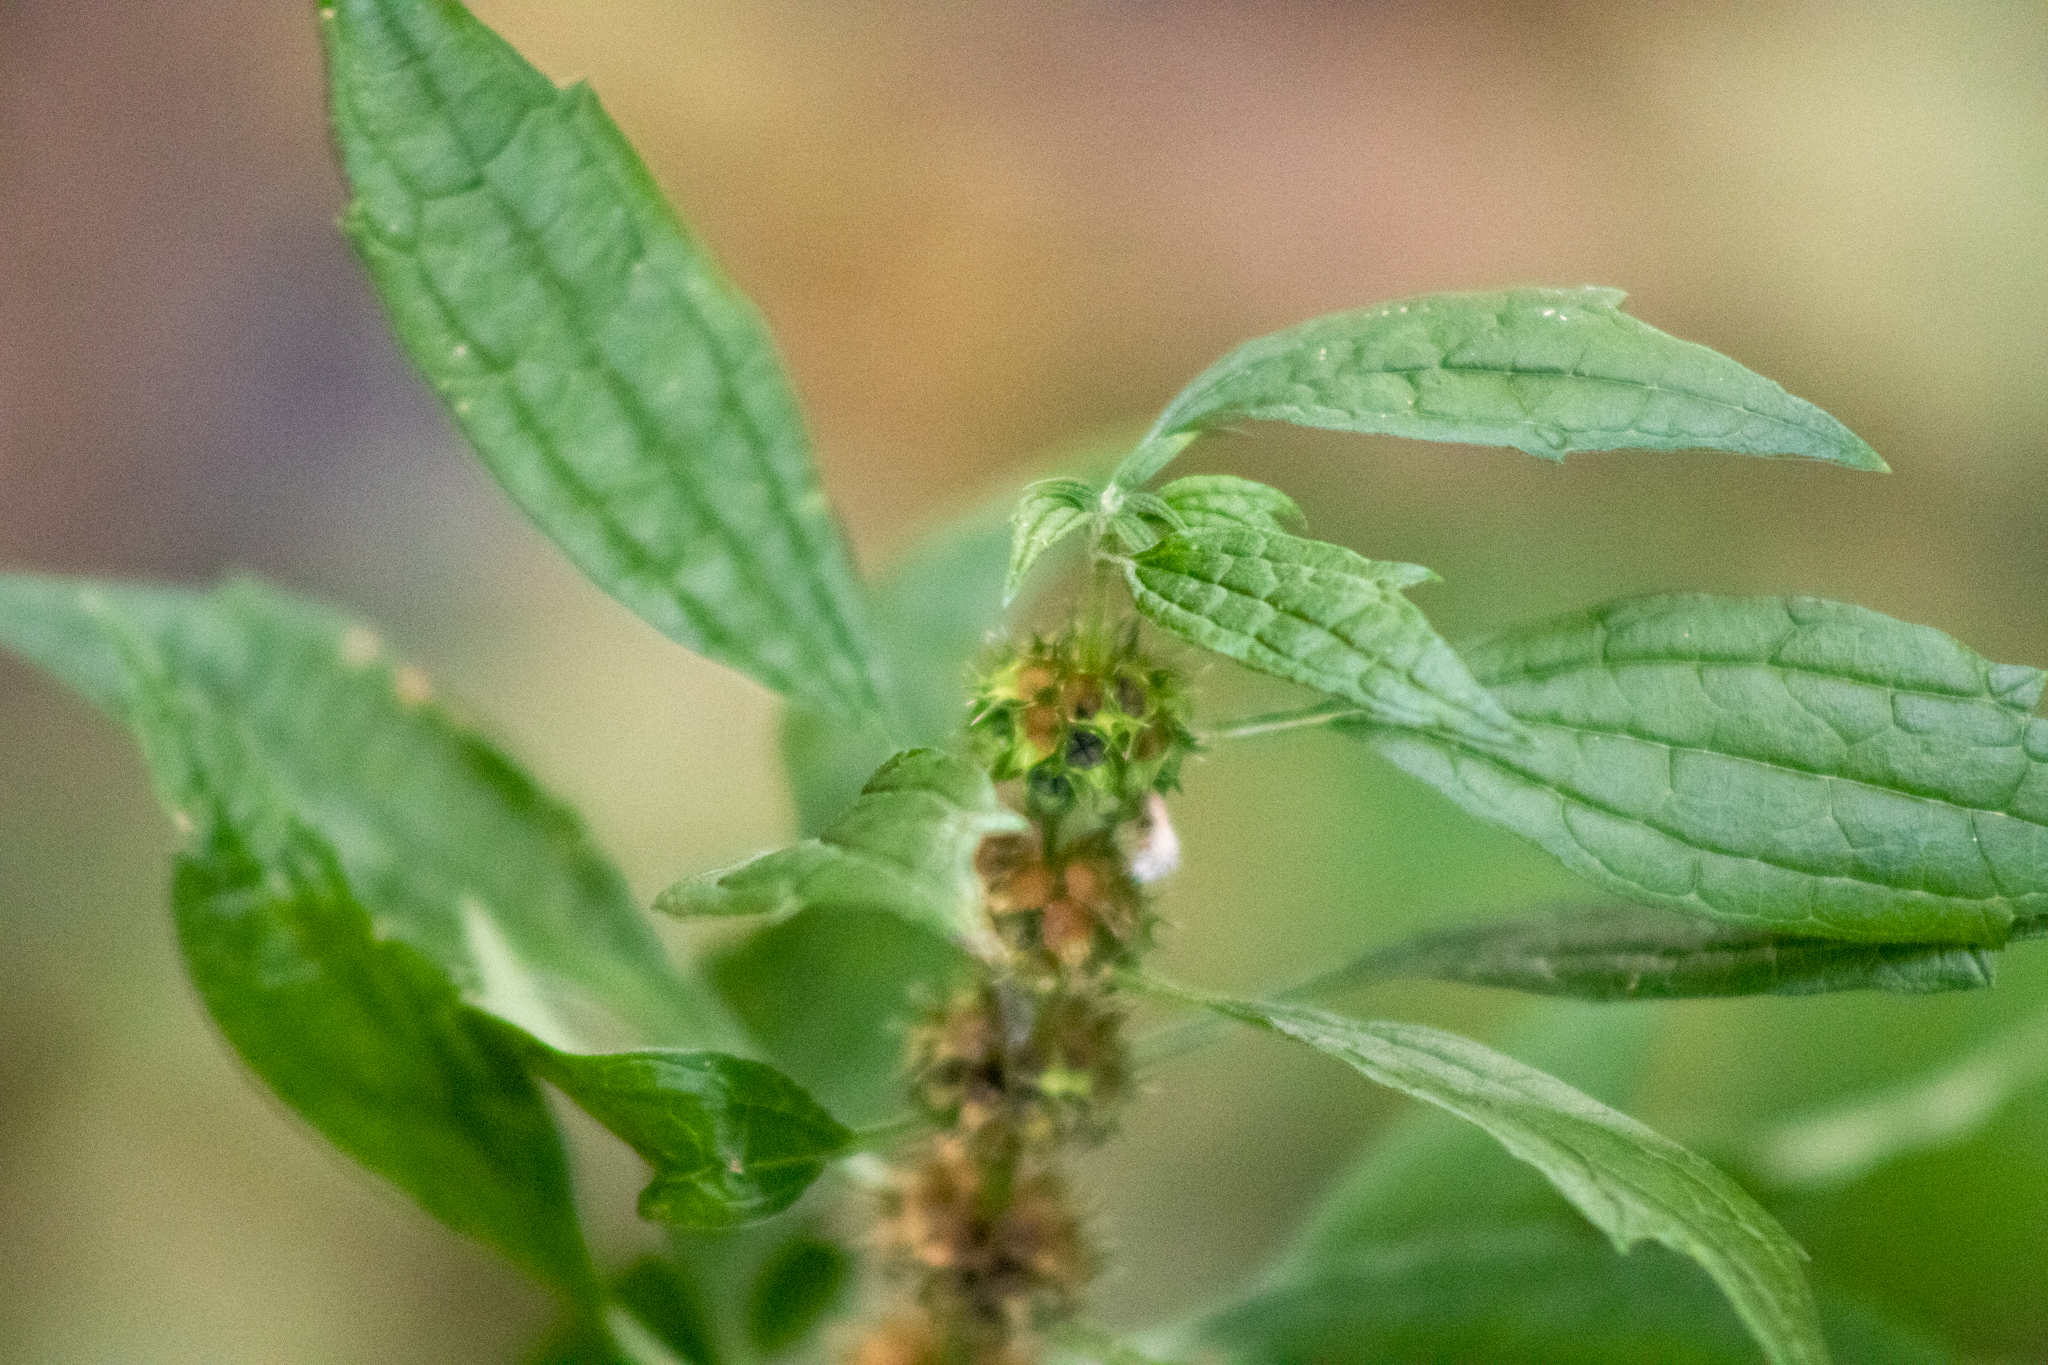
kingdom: Plantae
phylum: Tracheophyta
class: Magnoliopsida
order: Lamiales
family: Lamiaceae
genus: Leonurus
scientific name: Leonurus cardiaca
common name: Motherwort
